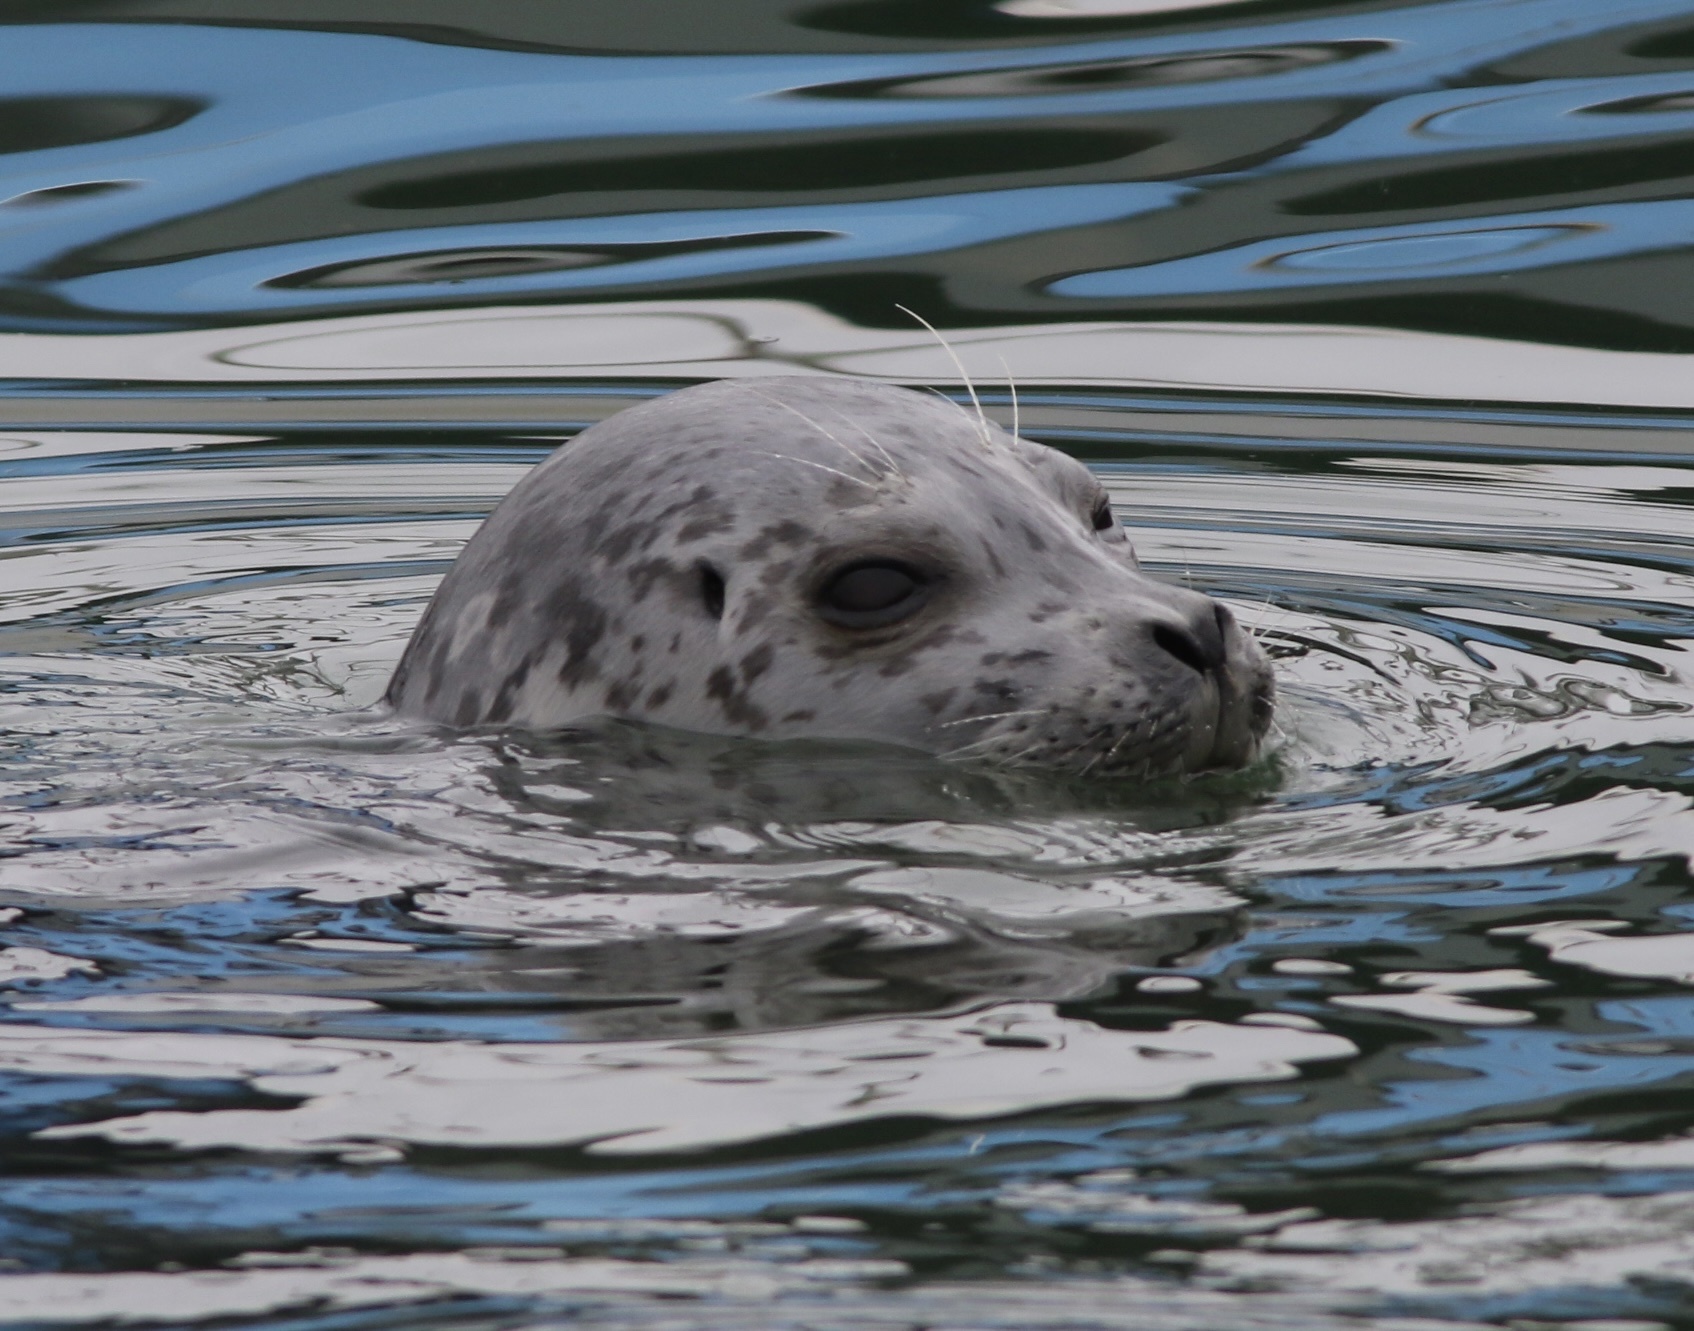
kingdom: Animalia
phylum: Chordata
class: Mammalia
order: Carnivora
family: Phocidae
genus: Phoca
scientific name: Phoca vitulina
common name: Harbor seal
